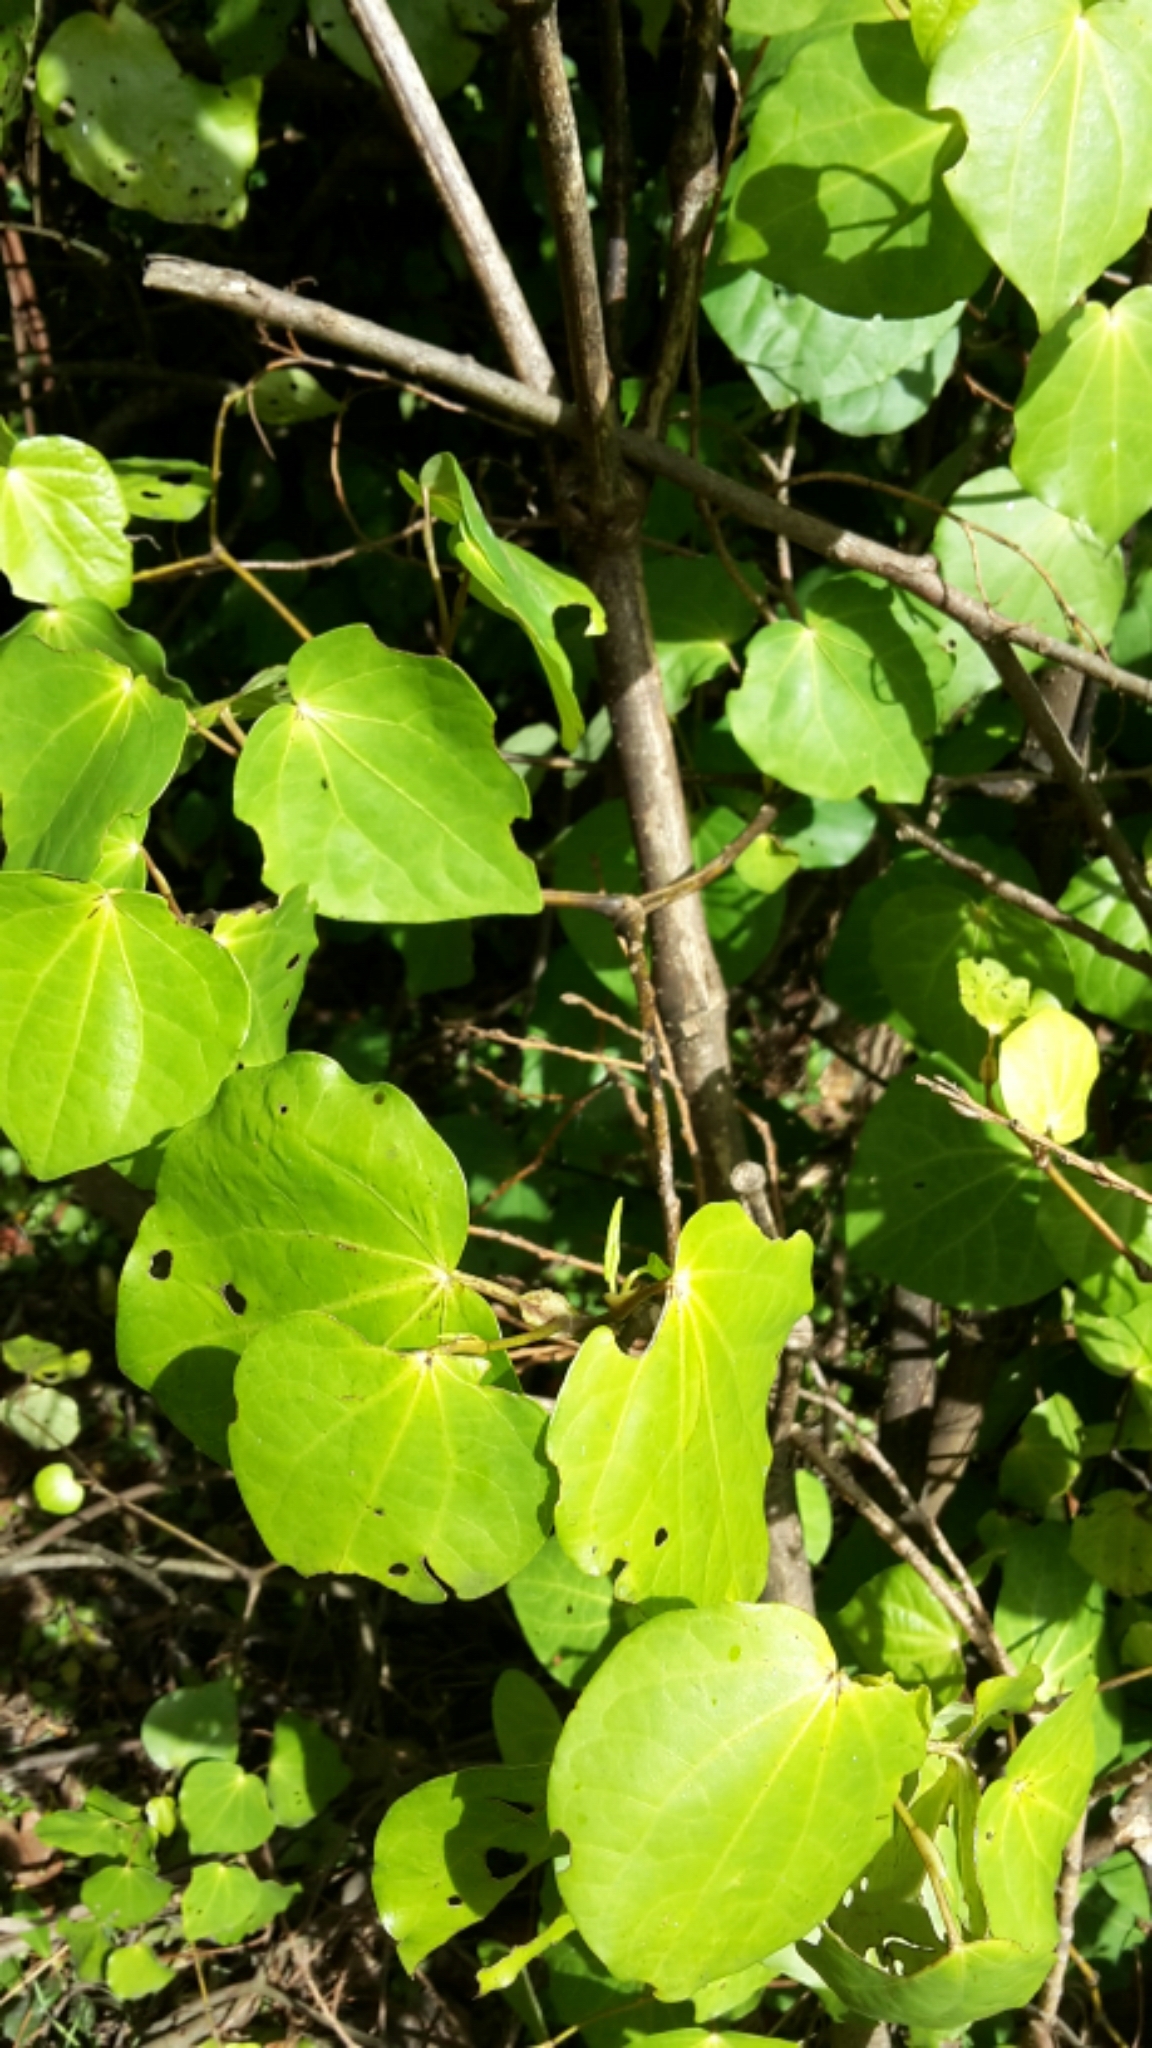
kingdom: Plantae
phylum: Tracheophyta
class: Magnoliopsida
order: Piperales
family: Piperaceae
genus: Macropiper
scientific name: Macropiper excelsum
